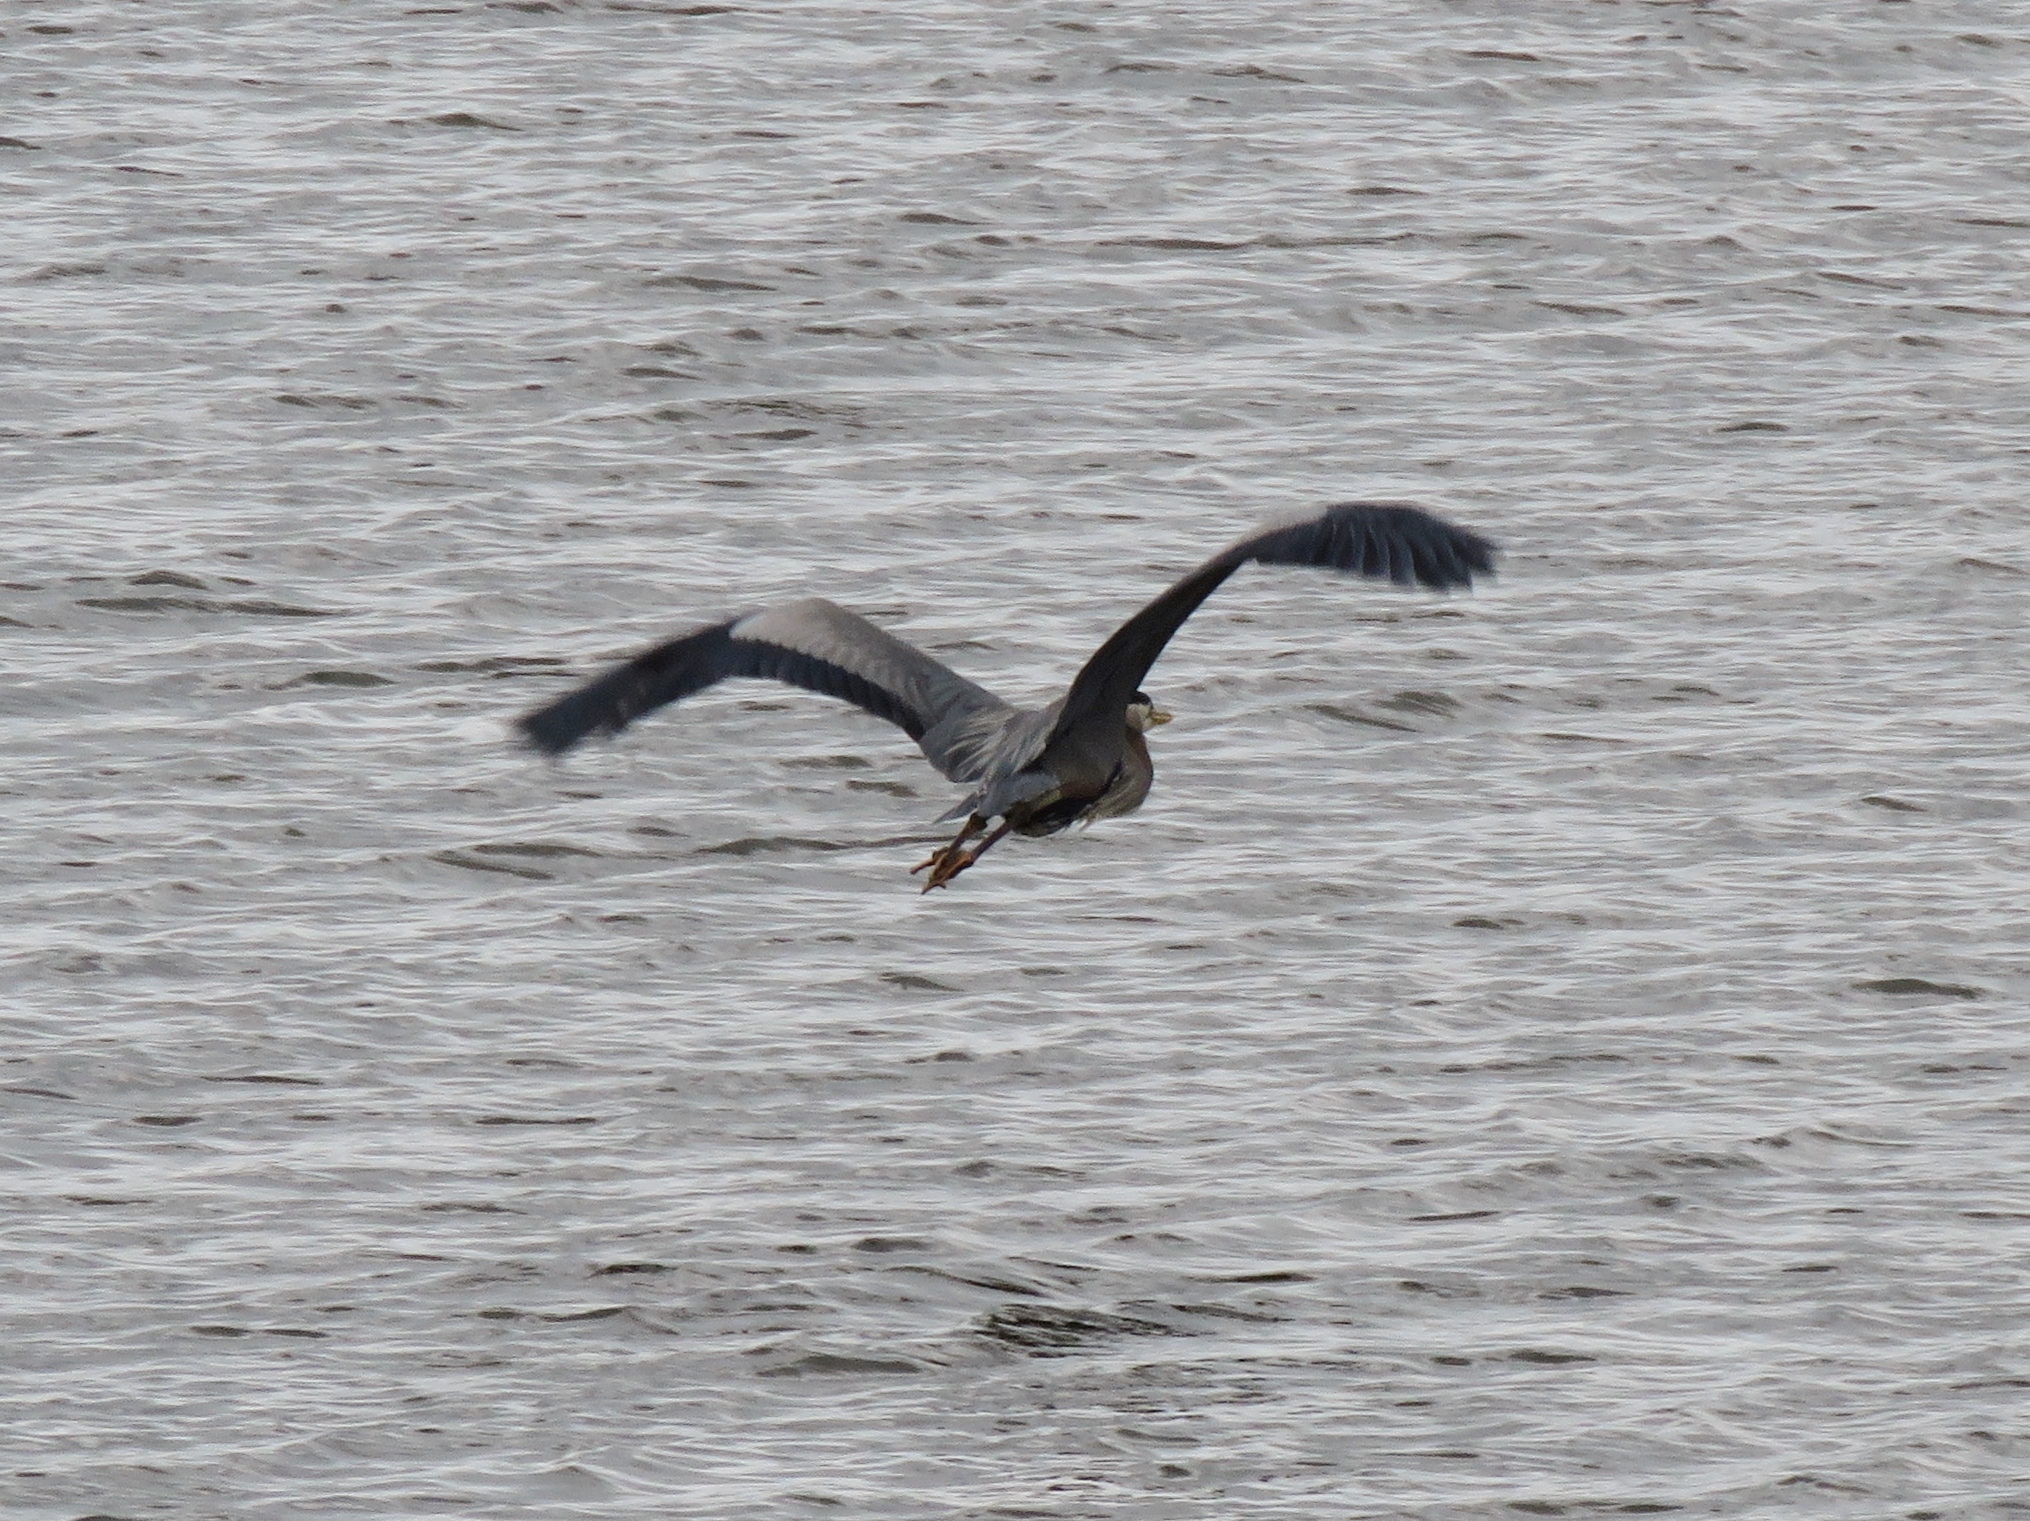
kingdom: Animalia
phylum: Chordata
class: Aves
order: Pelecaniformes
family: Ardeidae
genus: Ardea
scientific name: Ardea herodias
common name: Great blue heron
